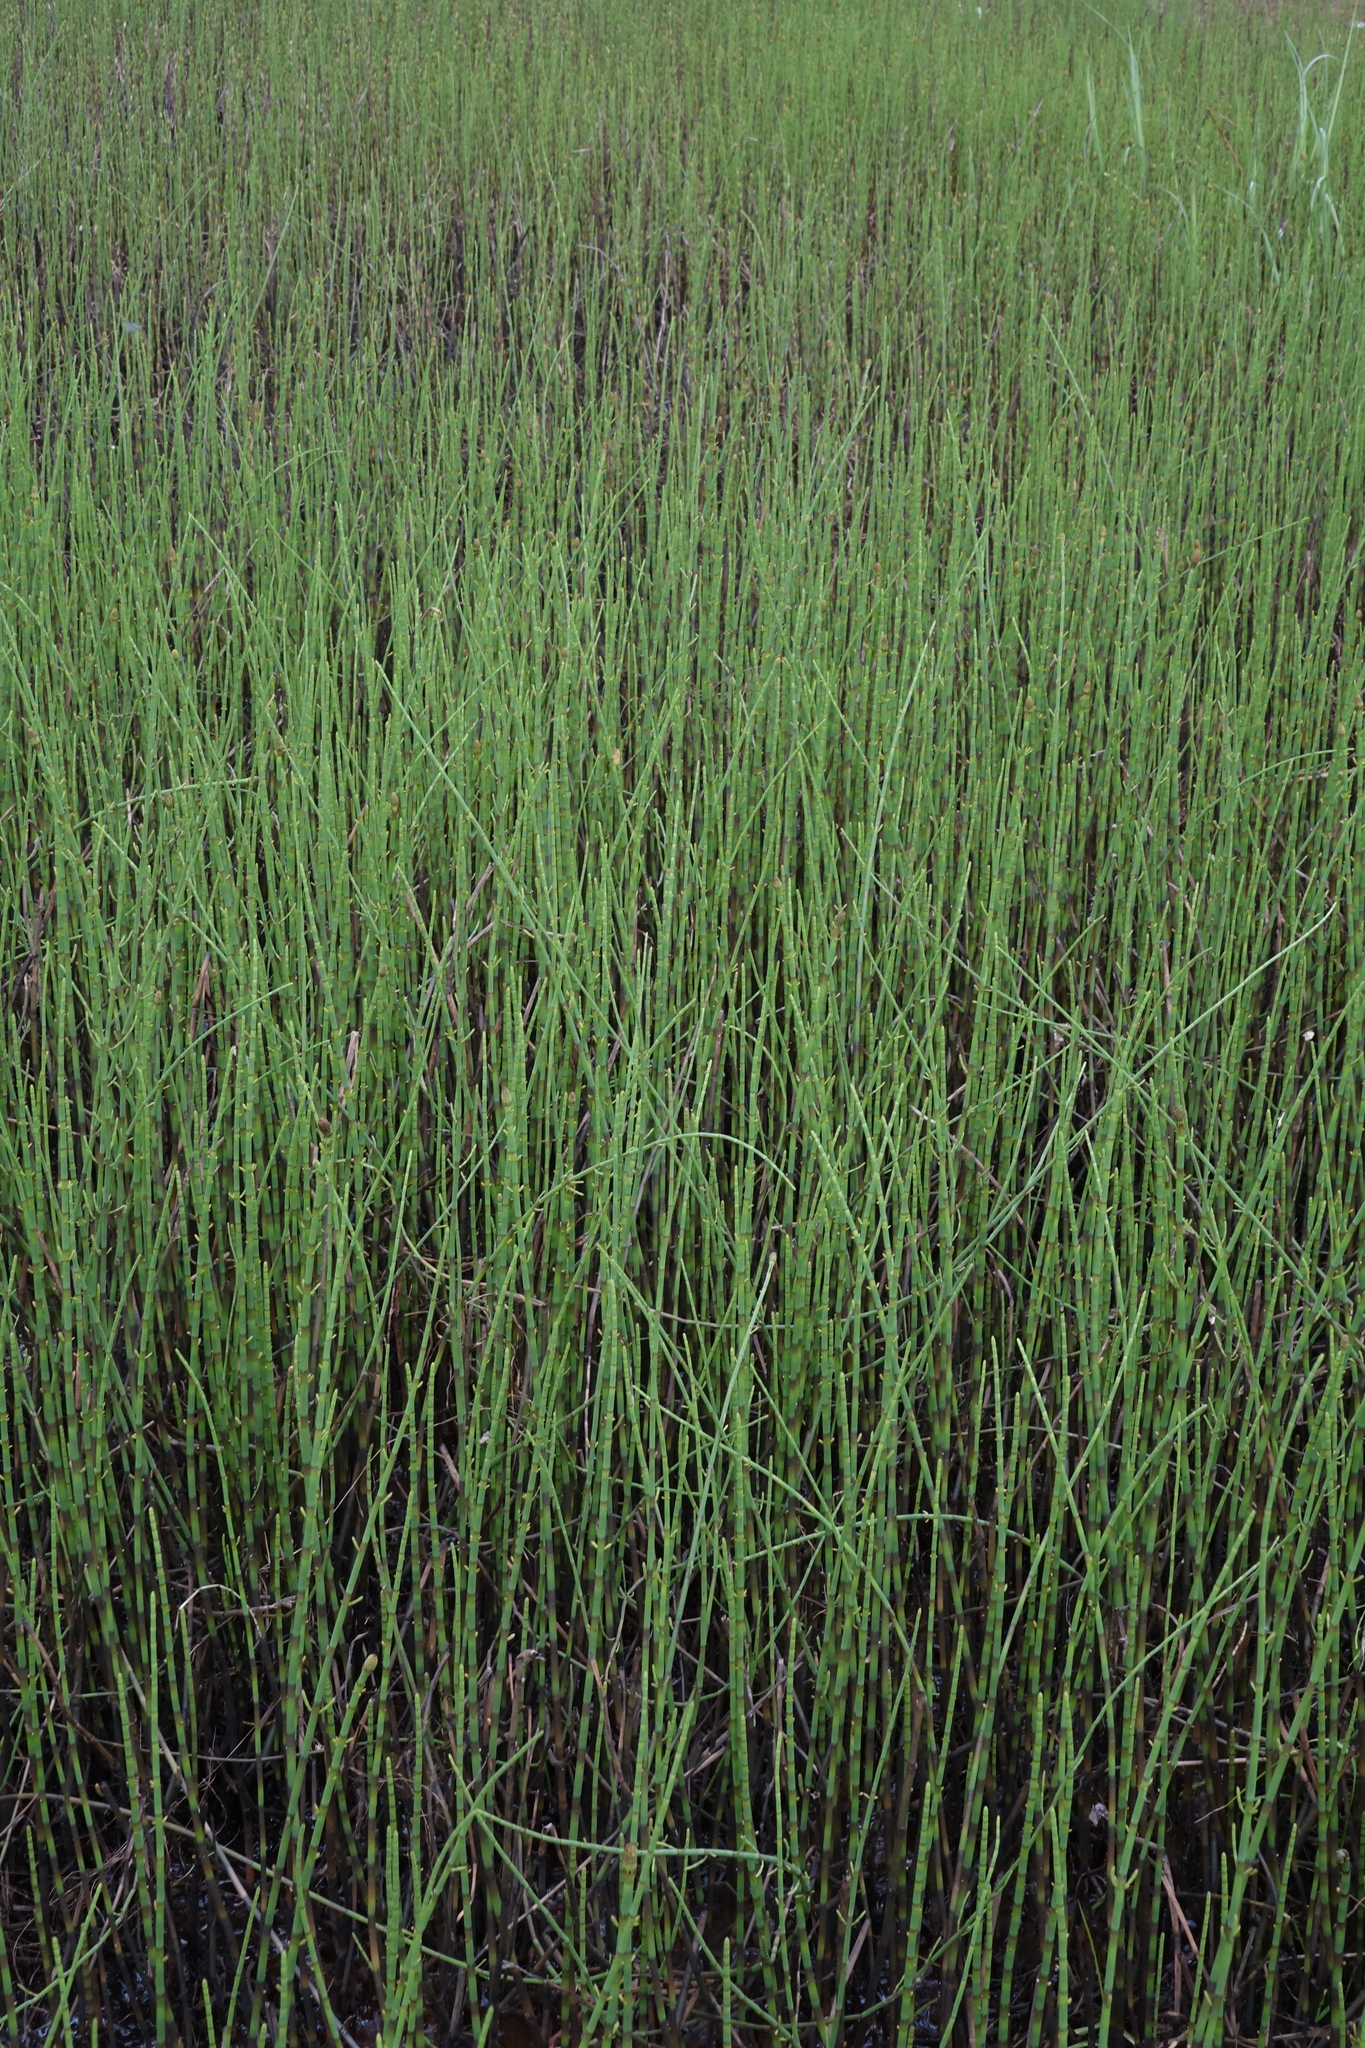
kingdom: Plantae
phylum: Tracheophyta
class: Polypodiopsida
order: Equisetales
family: Equisetaceae
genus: Equisetum
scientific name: Equisetum fluviatile
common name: Water horsetail
